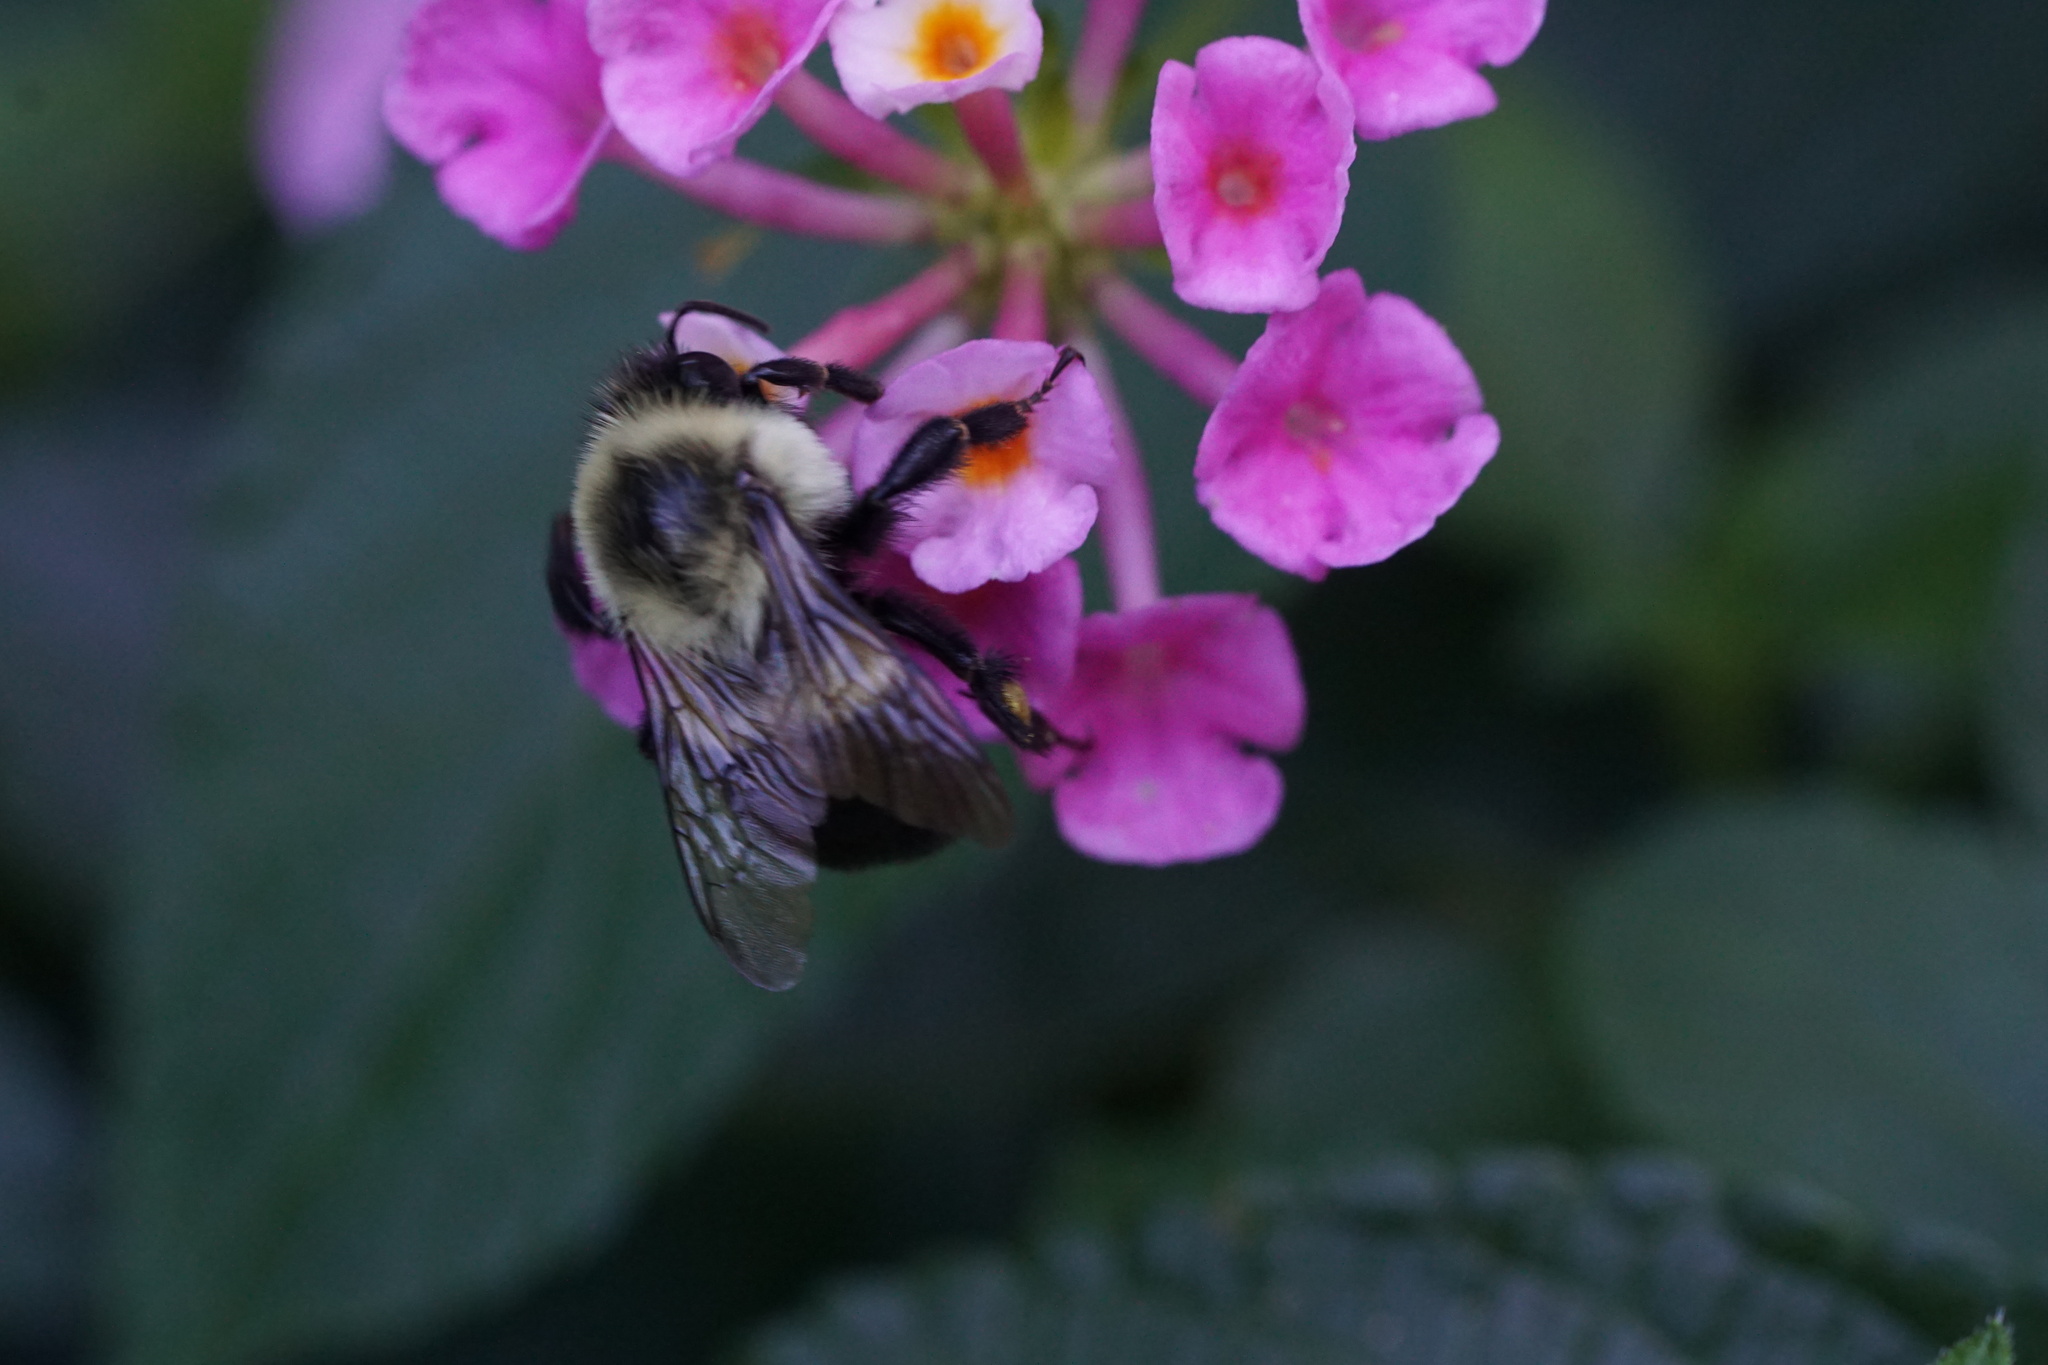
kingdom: Animalia
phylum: Arthropoda
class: Insecta
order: Hymenoptera
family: Apidae
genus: Bombus
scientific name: Bombus impatiens
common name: Common eastern bumble bee
